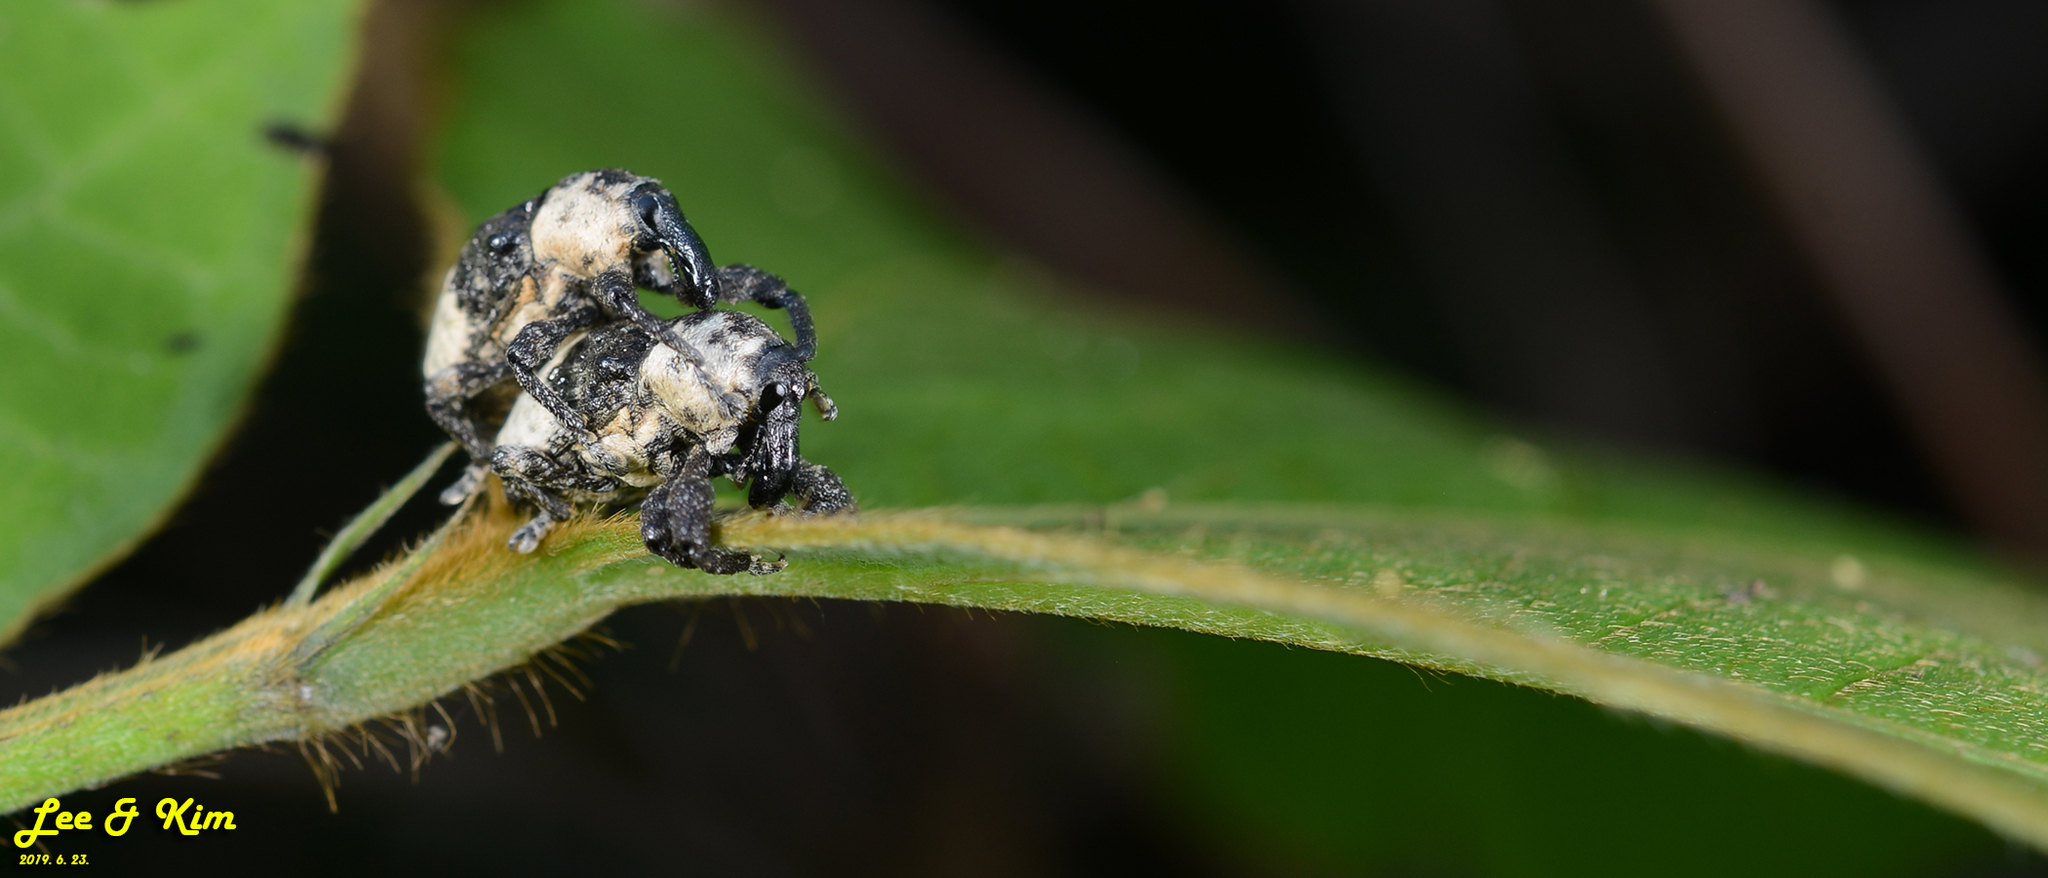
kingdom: Animalia
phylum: Arthropoda
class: Insecta
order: Coleoptera
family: Curculionidae
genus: Alcides
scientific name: Alcides trifidus
